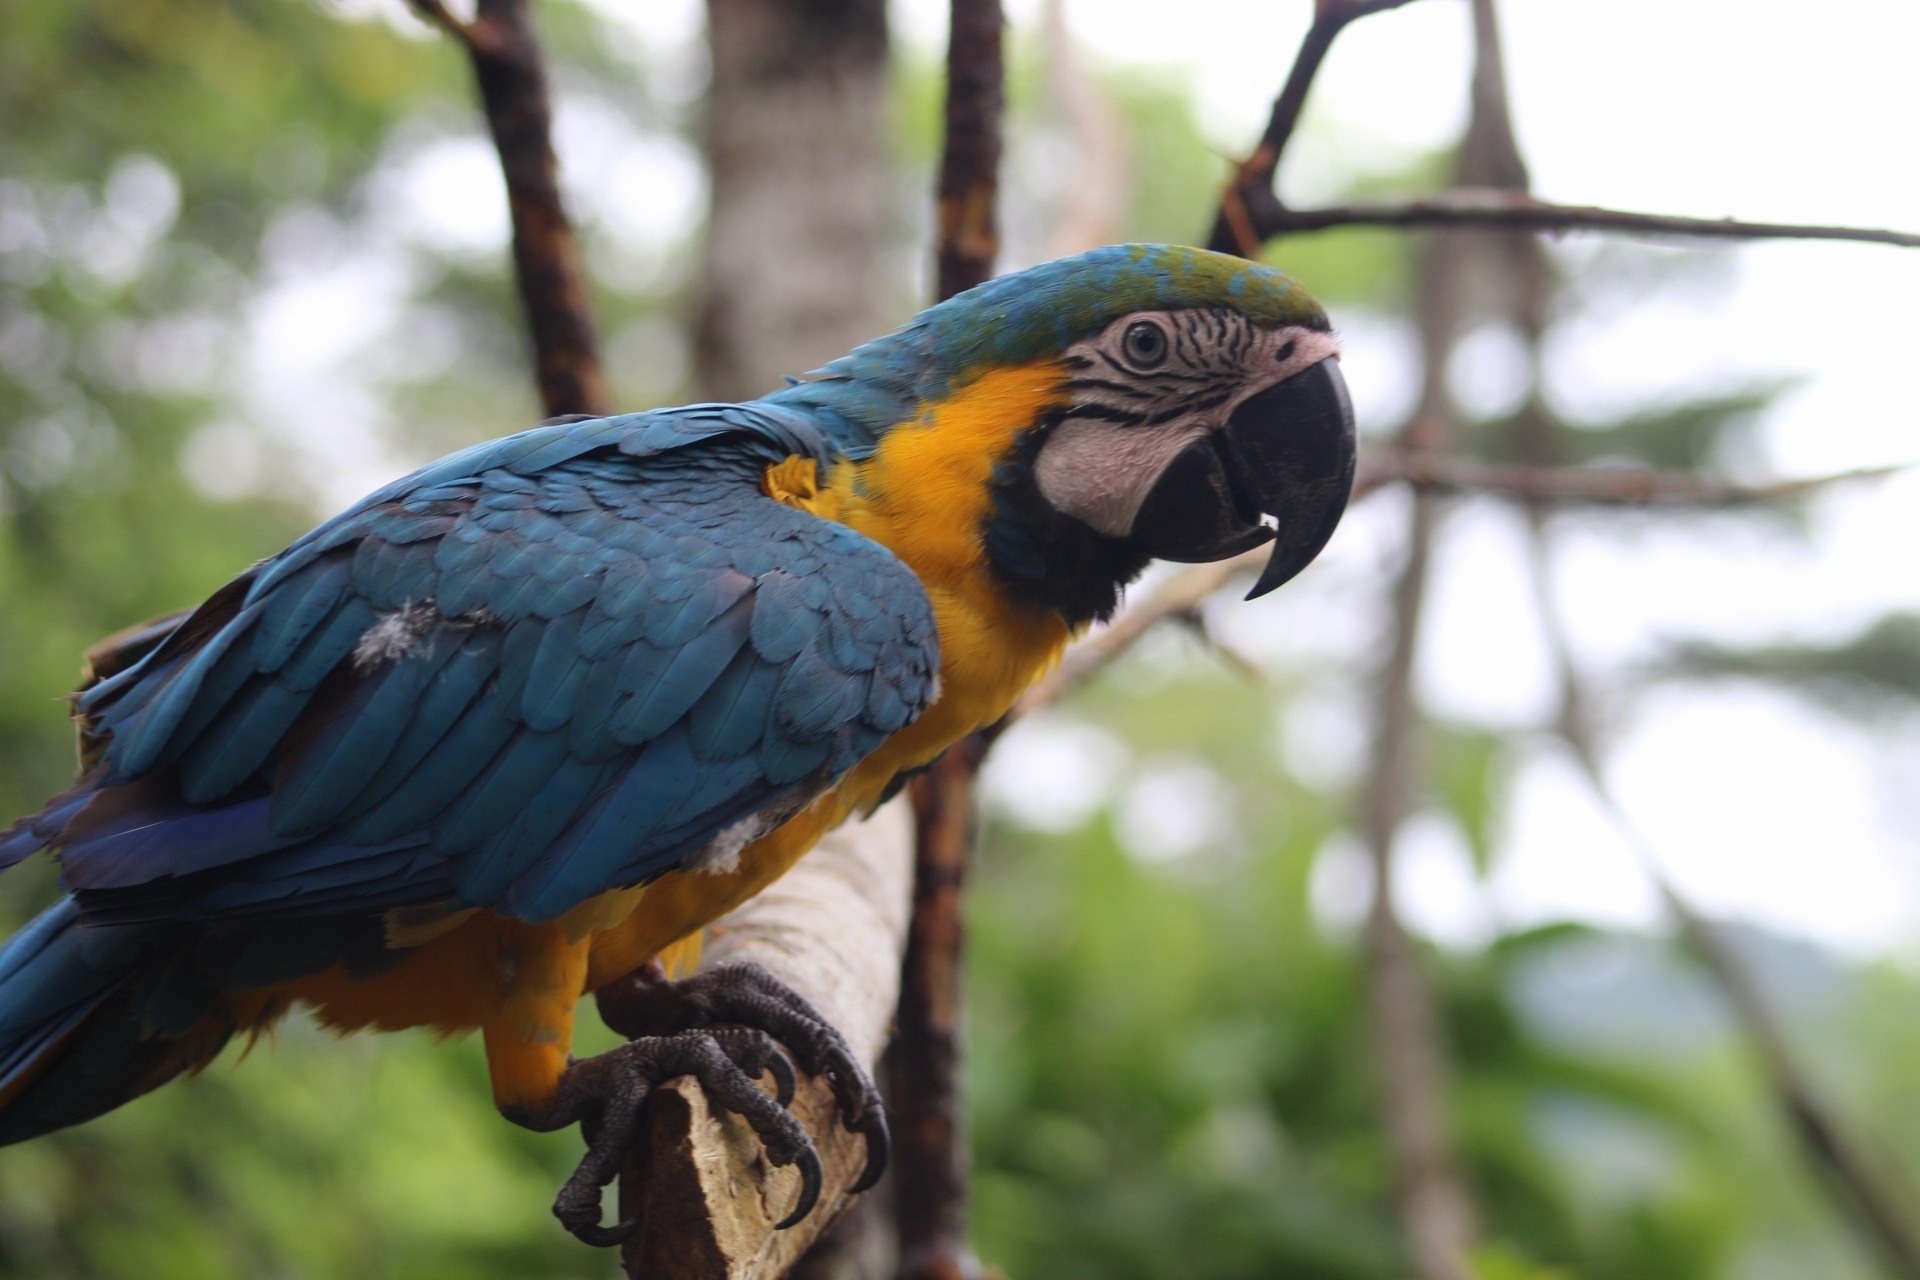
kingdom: Animalia
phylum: Chordata
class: Aves
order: Psittaciformes
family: Psittacidae
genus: Ara
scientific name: Ara ararauna
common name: Blue-and-yellow macaw
